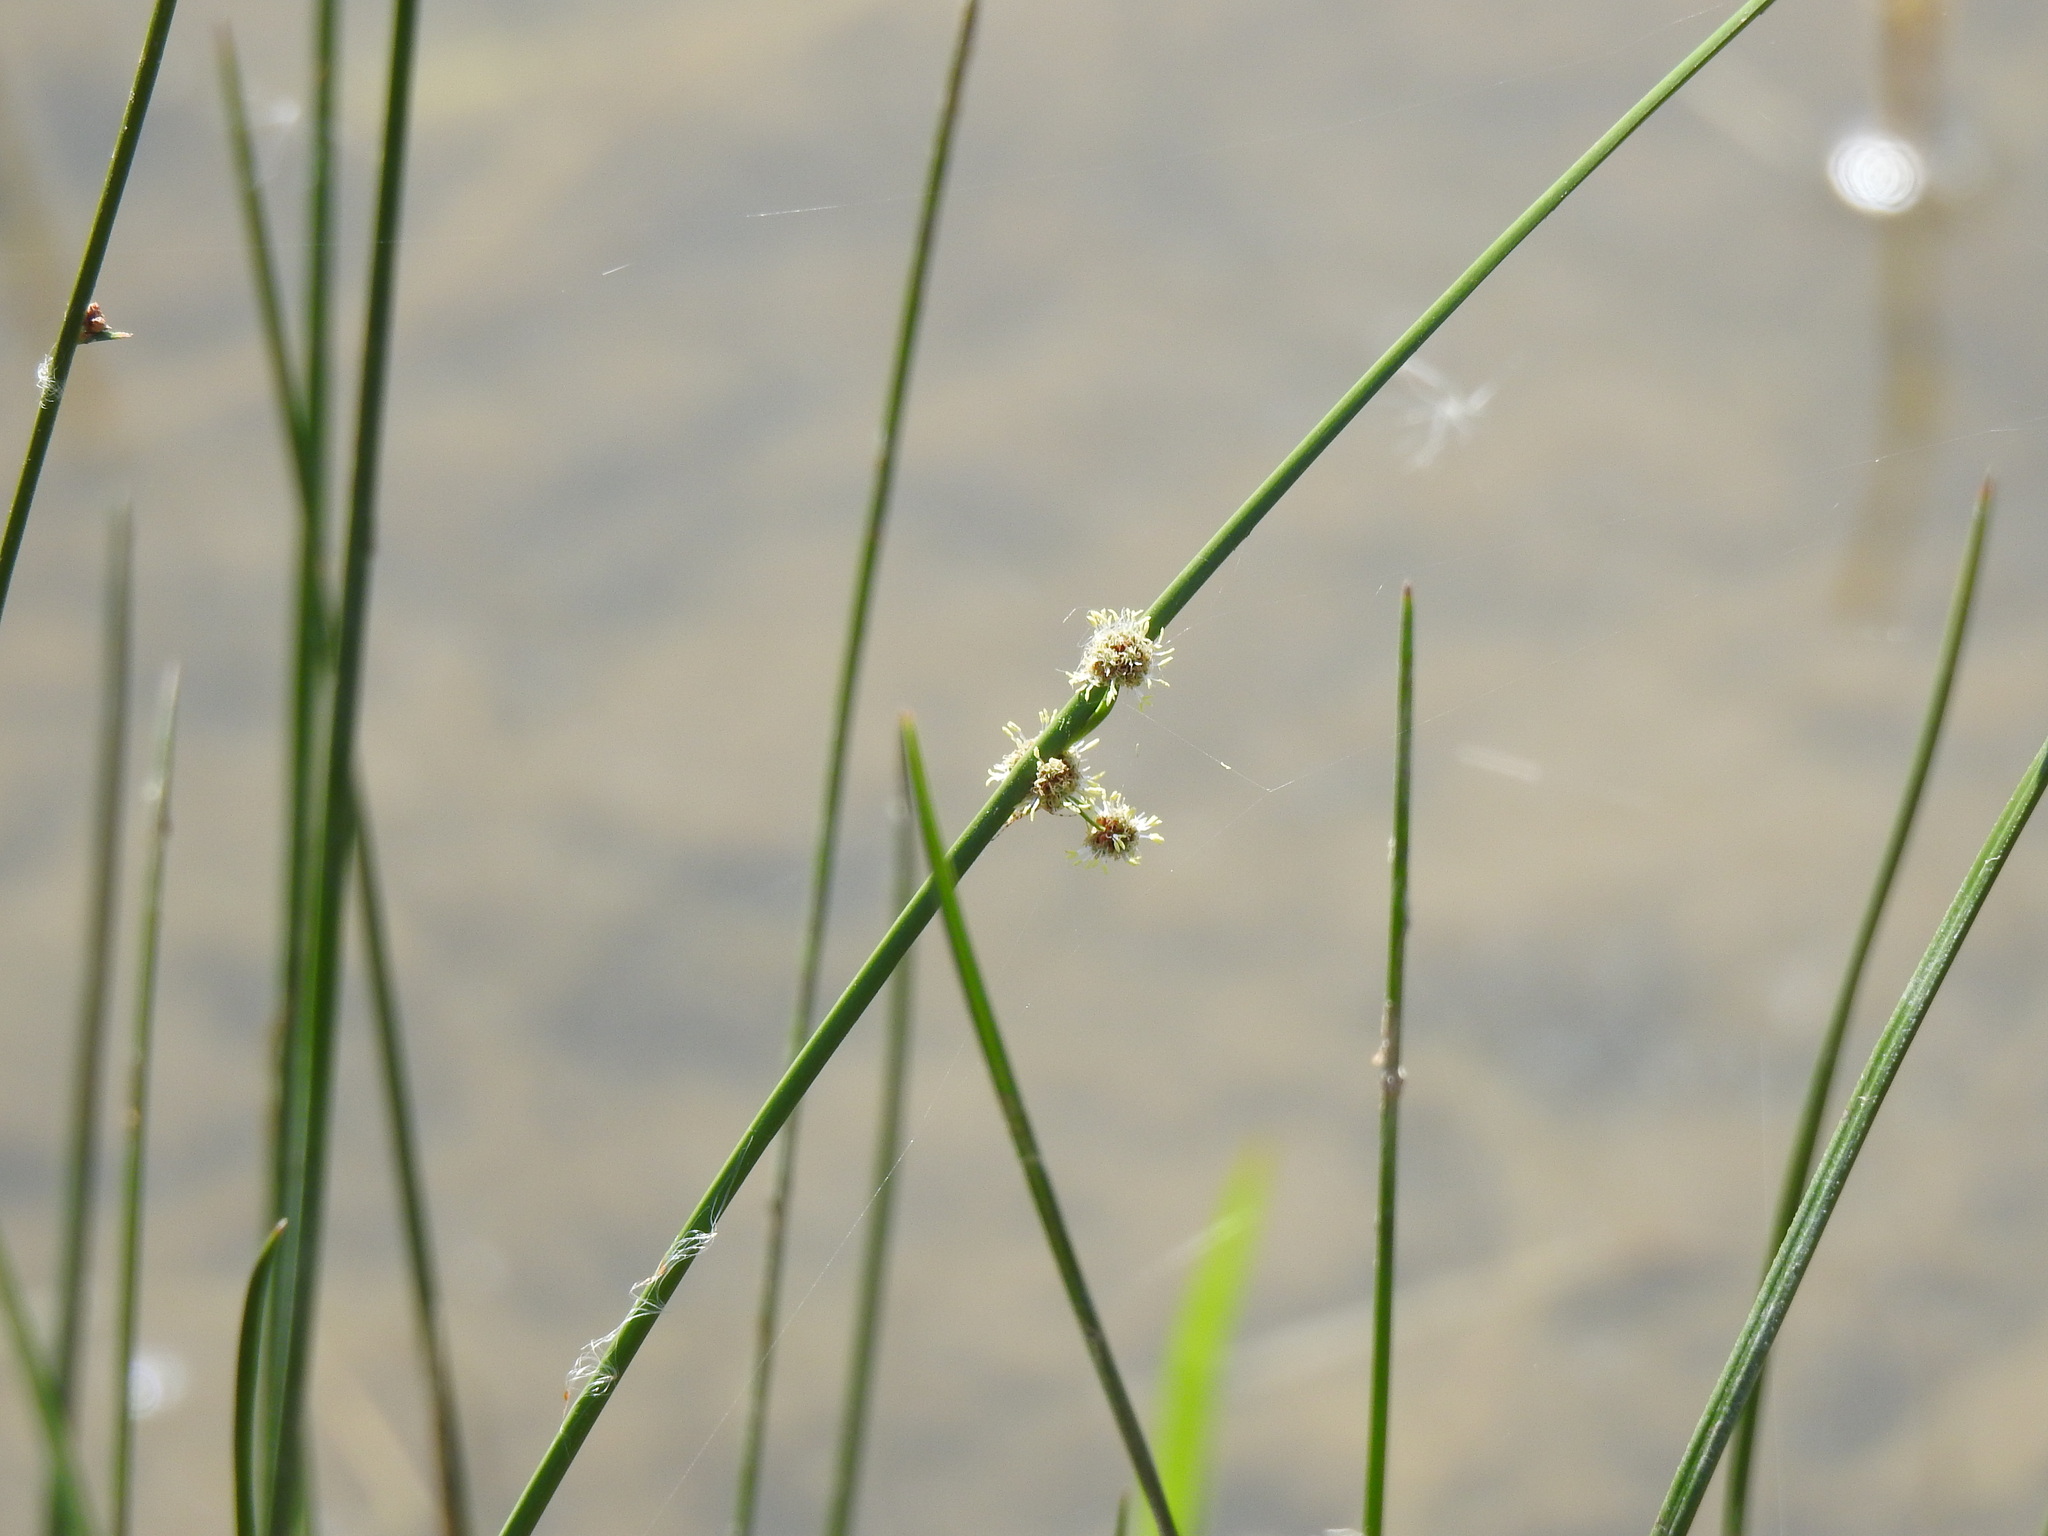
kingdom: Plantae
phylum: Tracheophyta
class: Liliopsida
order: Poales
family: Cyperaceae
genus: Scirpoides
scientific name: Scirpoides holoschoenus
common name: Round-headed club-rush
